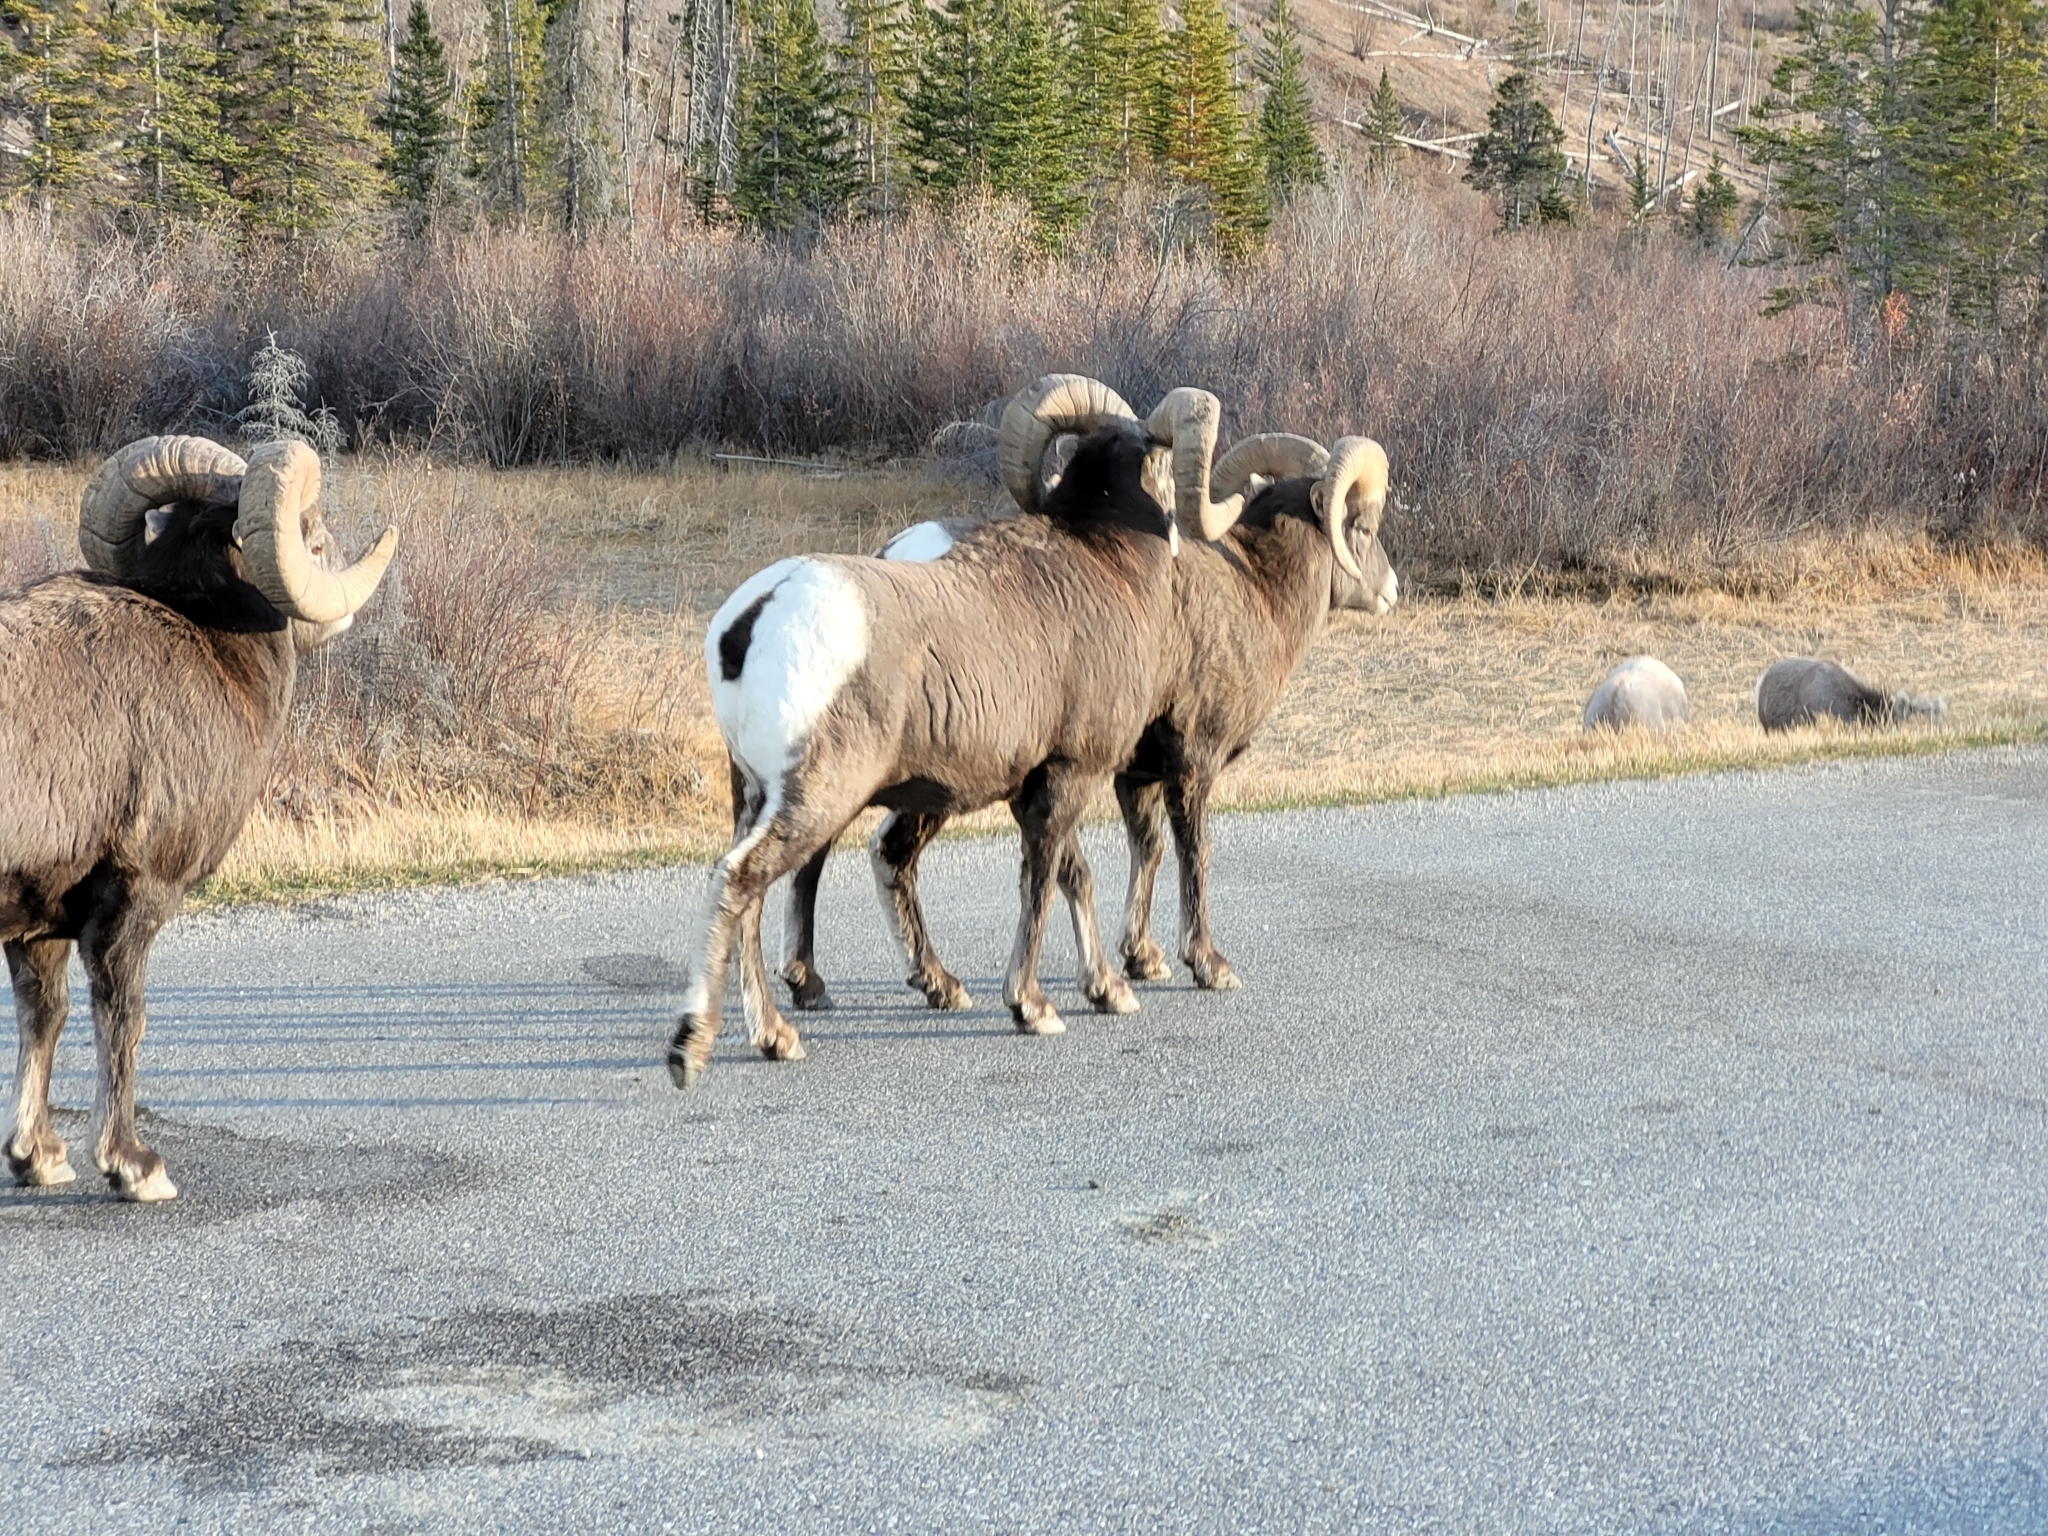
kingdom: Animalia
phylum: Chordata
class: Mammalia
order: Artiodactyla
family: Bovidae
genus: Ovis
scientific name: Ovis canadensis
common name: Bighorn sheep
